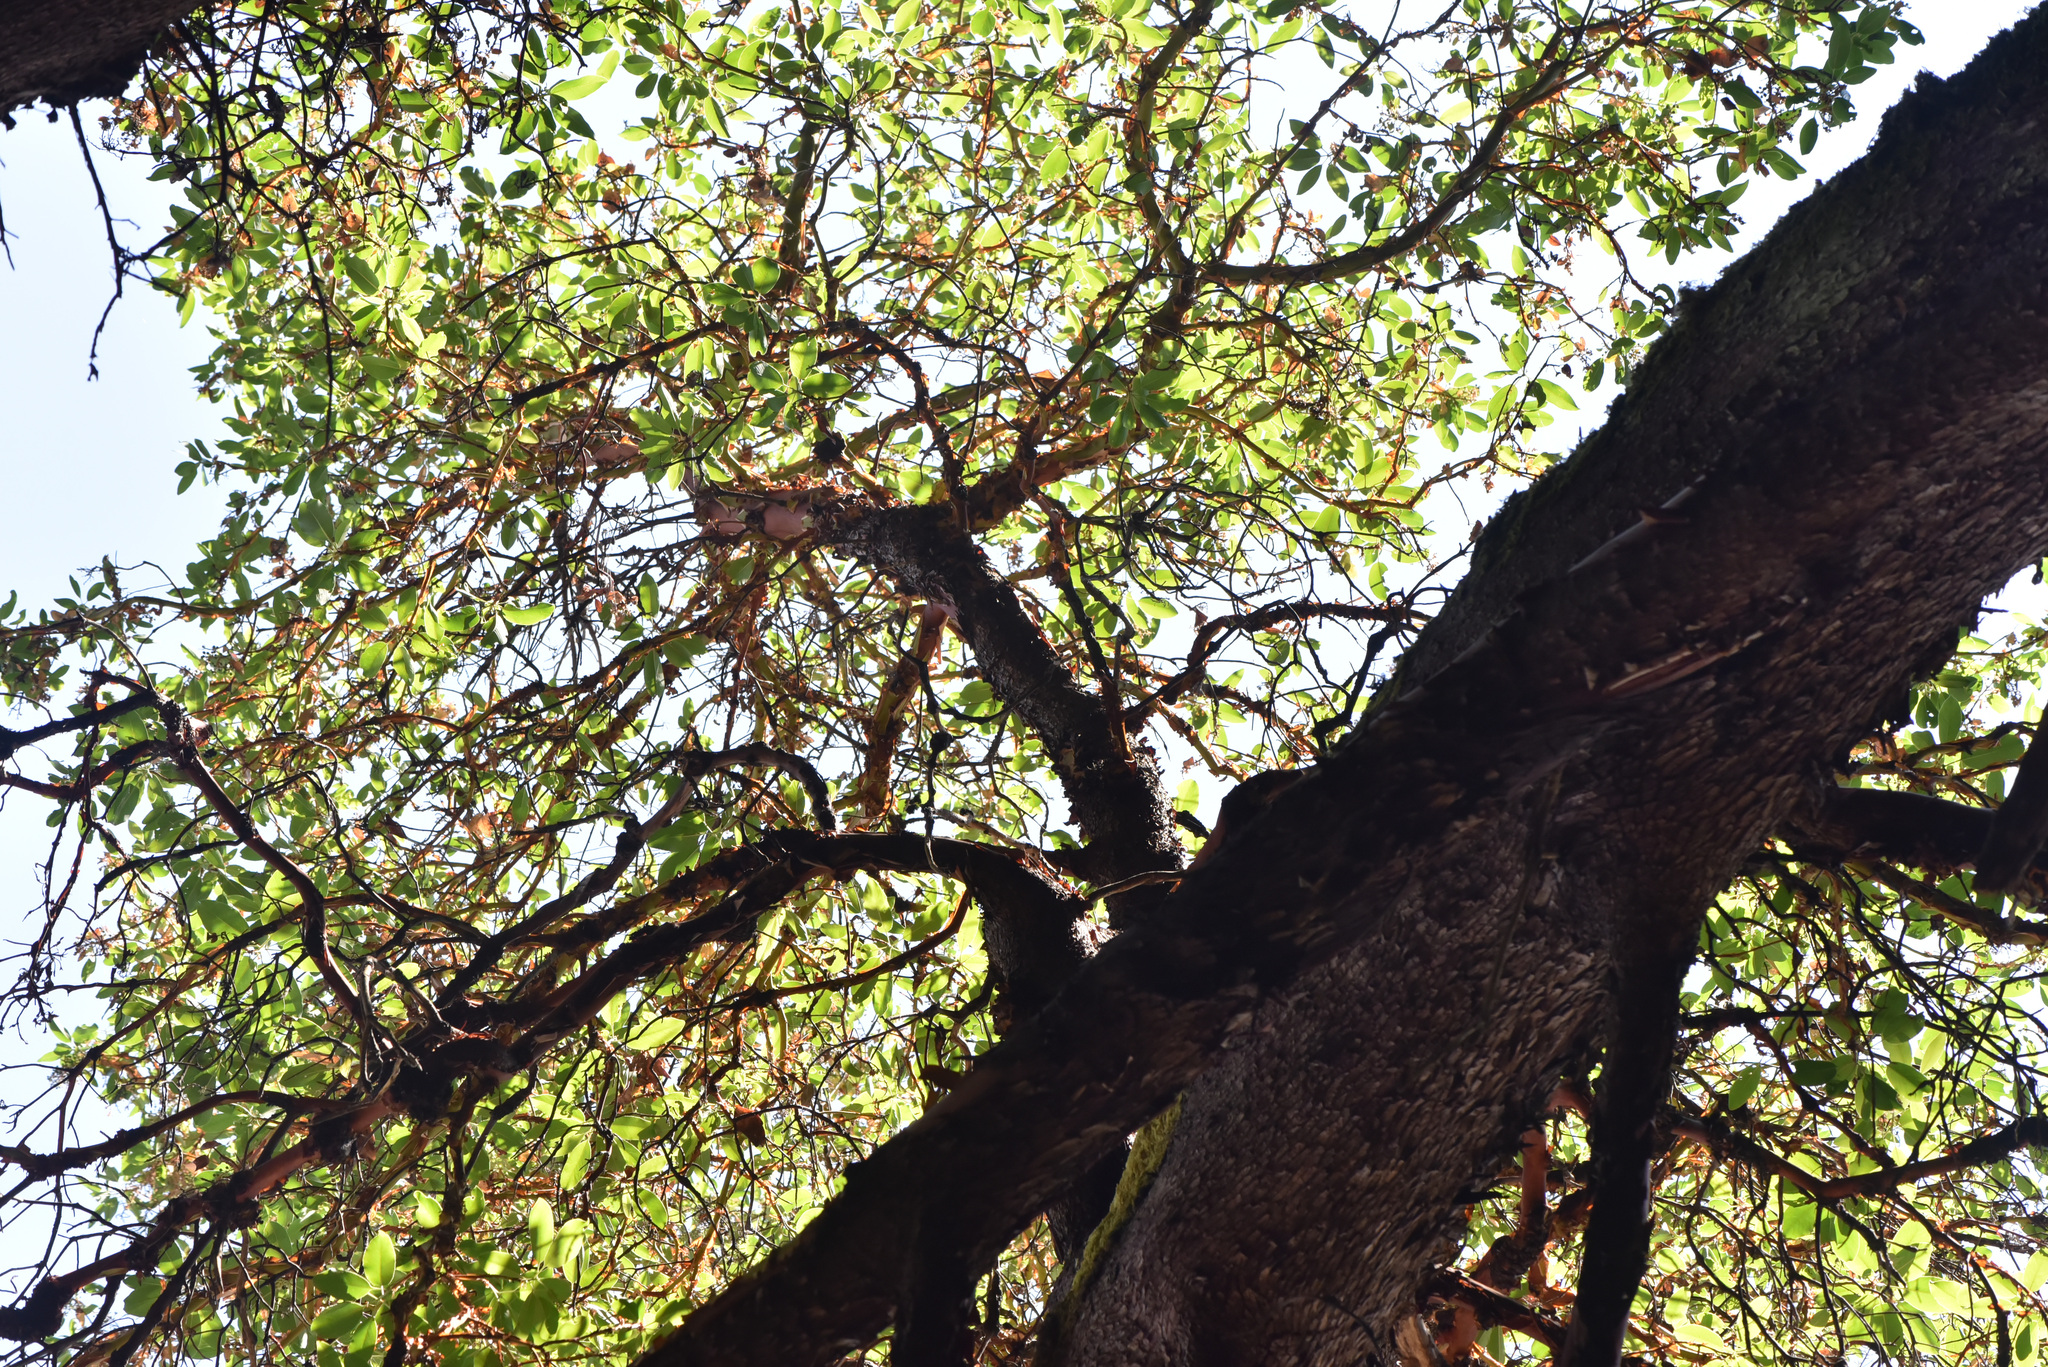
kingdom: Plantae
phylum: Tracheophyta
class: Magnoliopsida
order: Ericales
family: Ericaceae
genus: Arbutus
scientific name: Arbutus menziesii
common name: Pacific madrone
